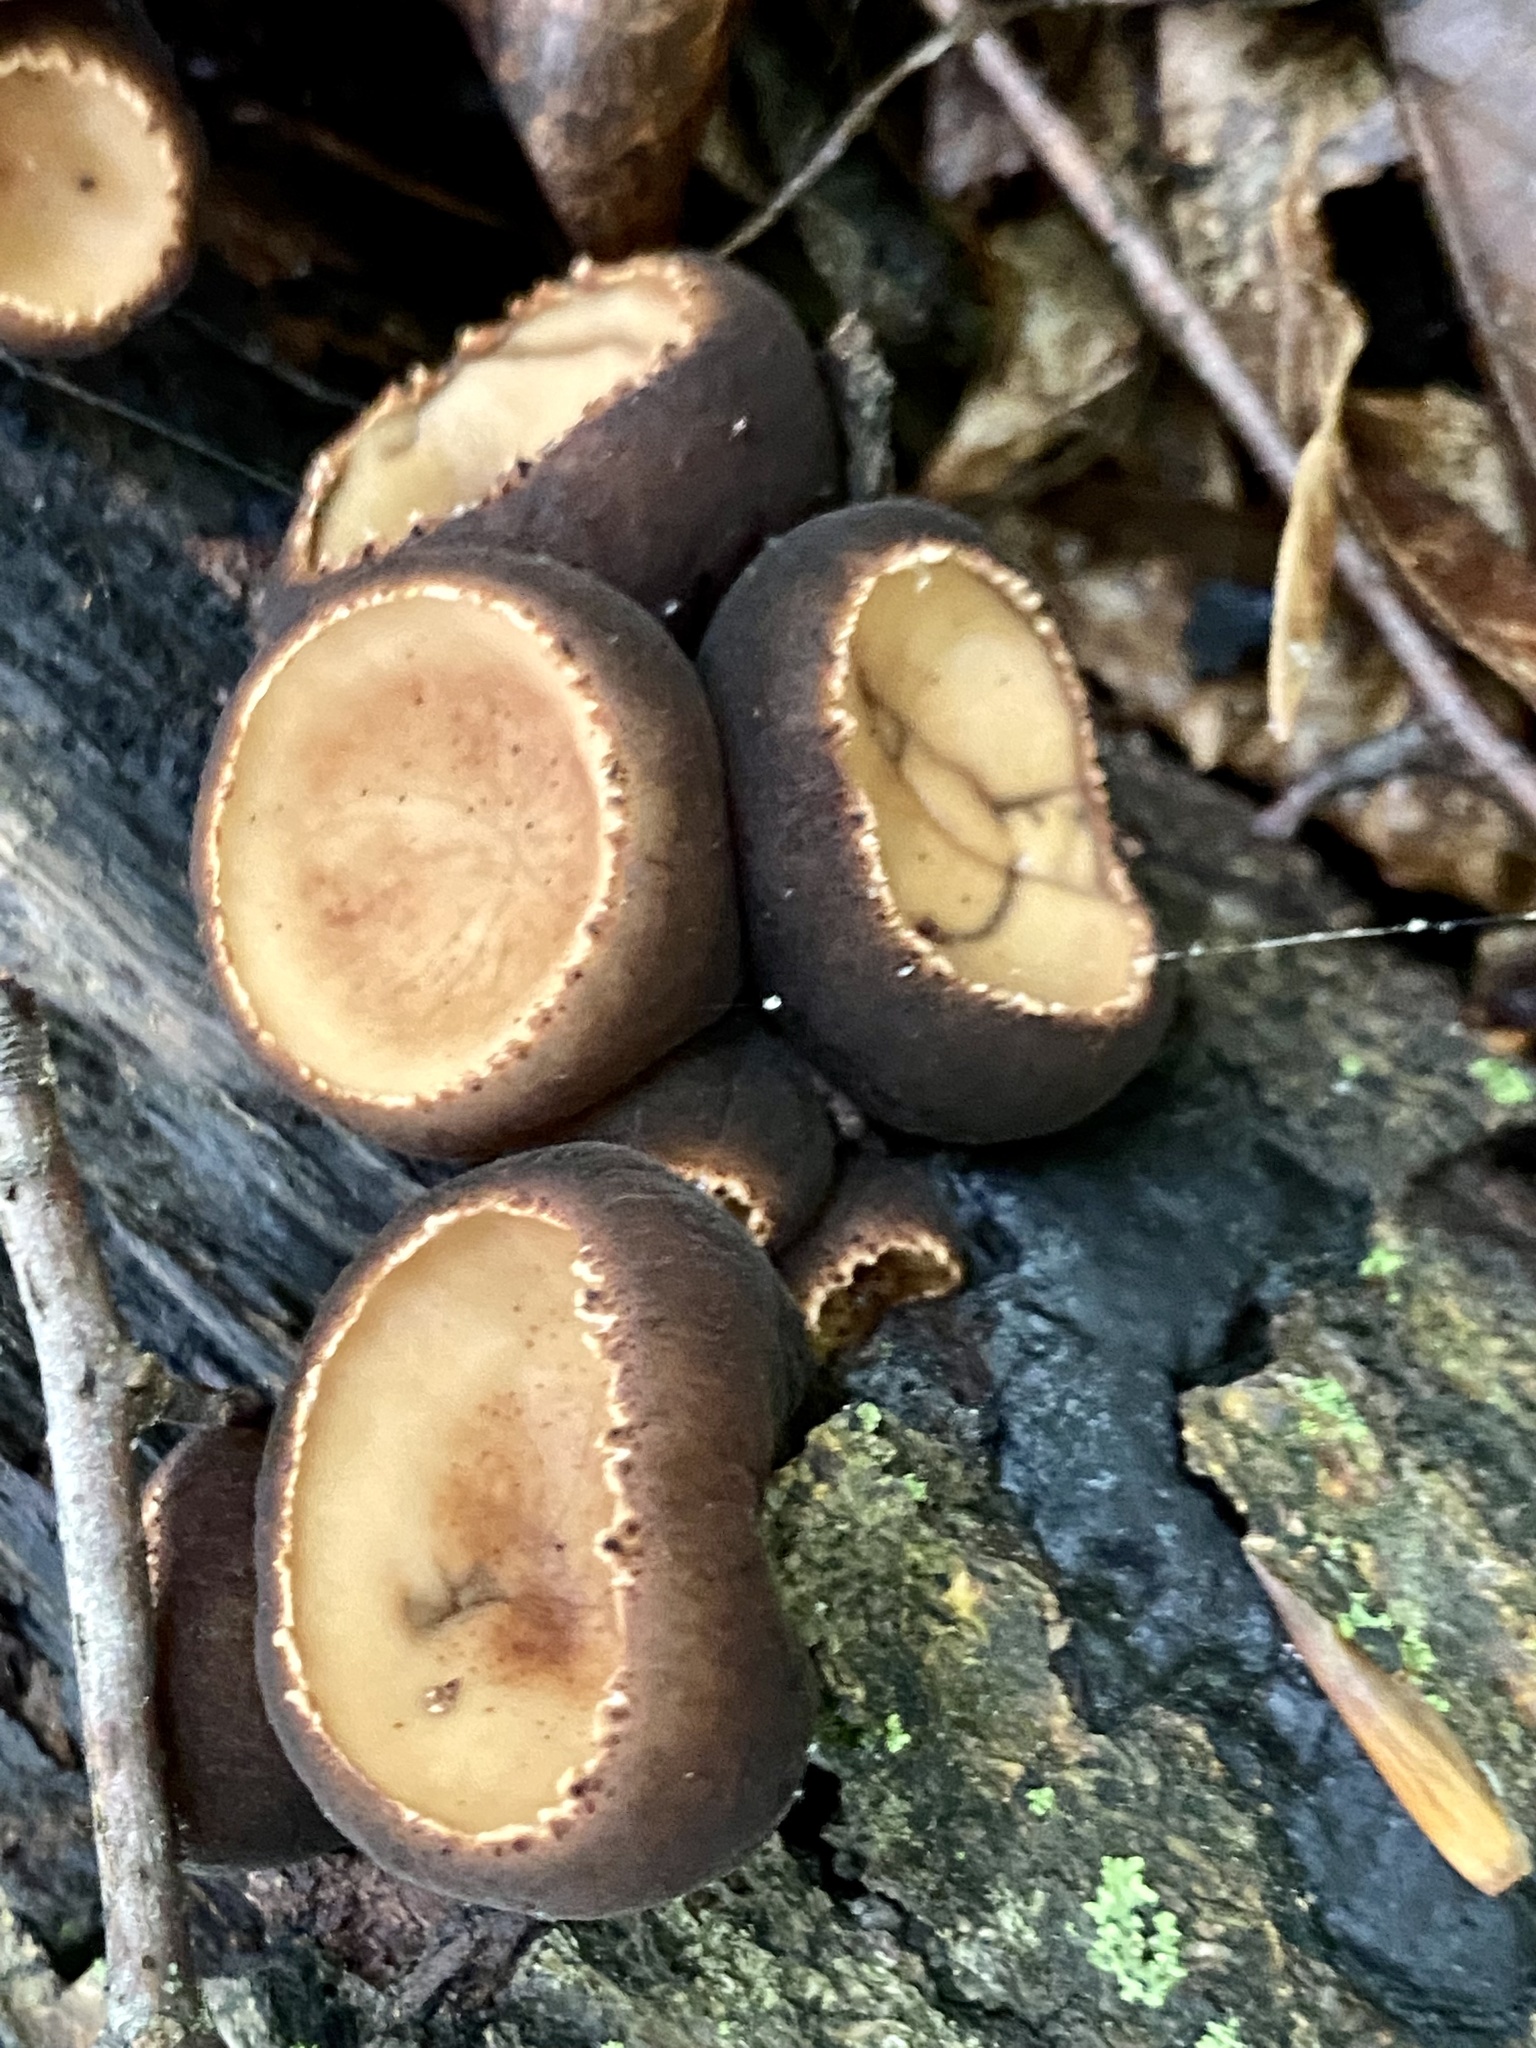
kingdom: Fungi
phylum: Ascomycota
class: Pezizomycetes
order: Pezizales
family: Sarcosomataceae
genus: Galiella
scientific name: Galiella rufa
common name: Hairy rubber cup
